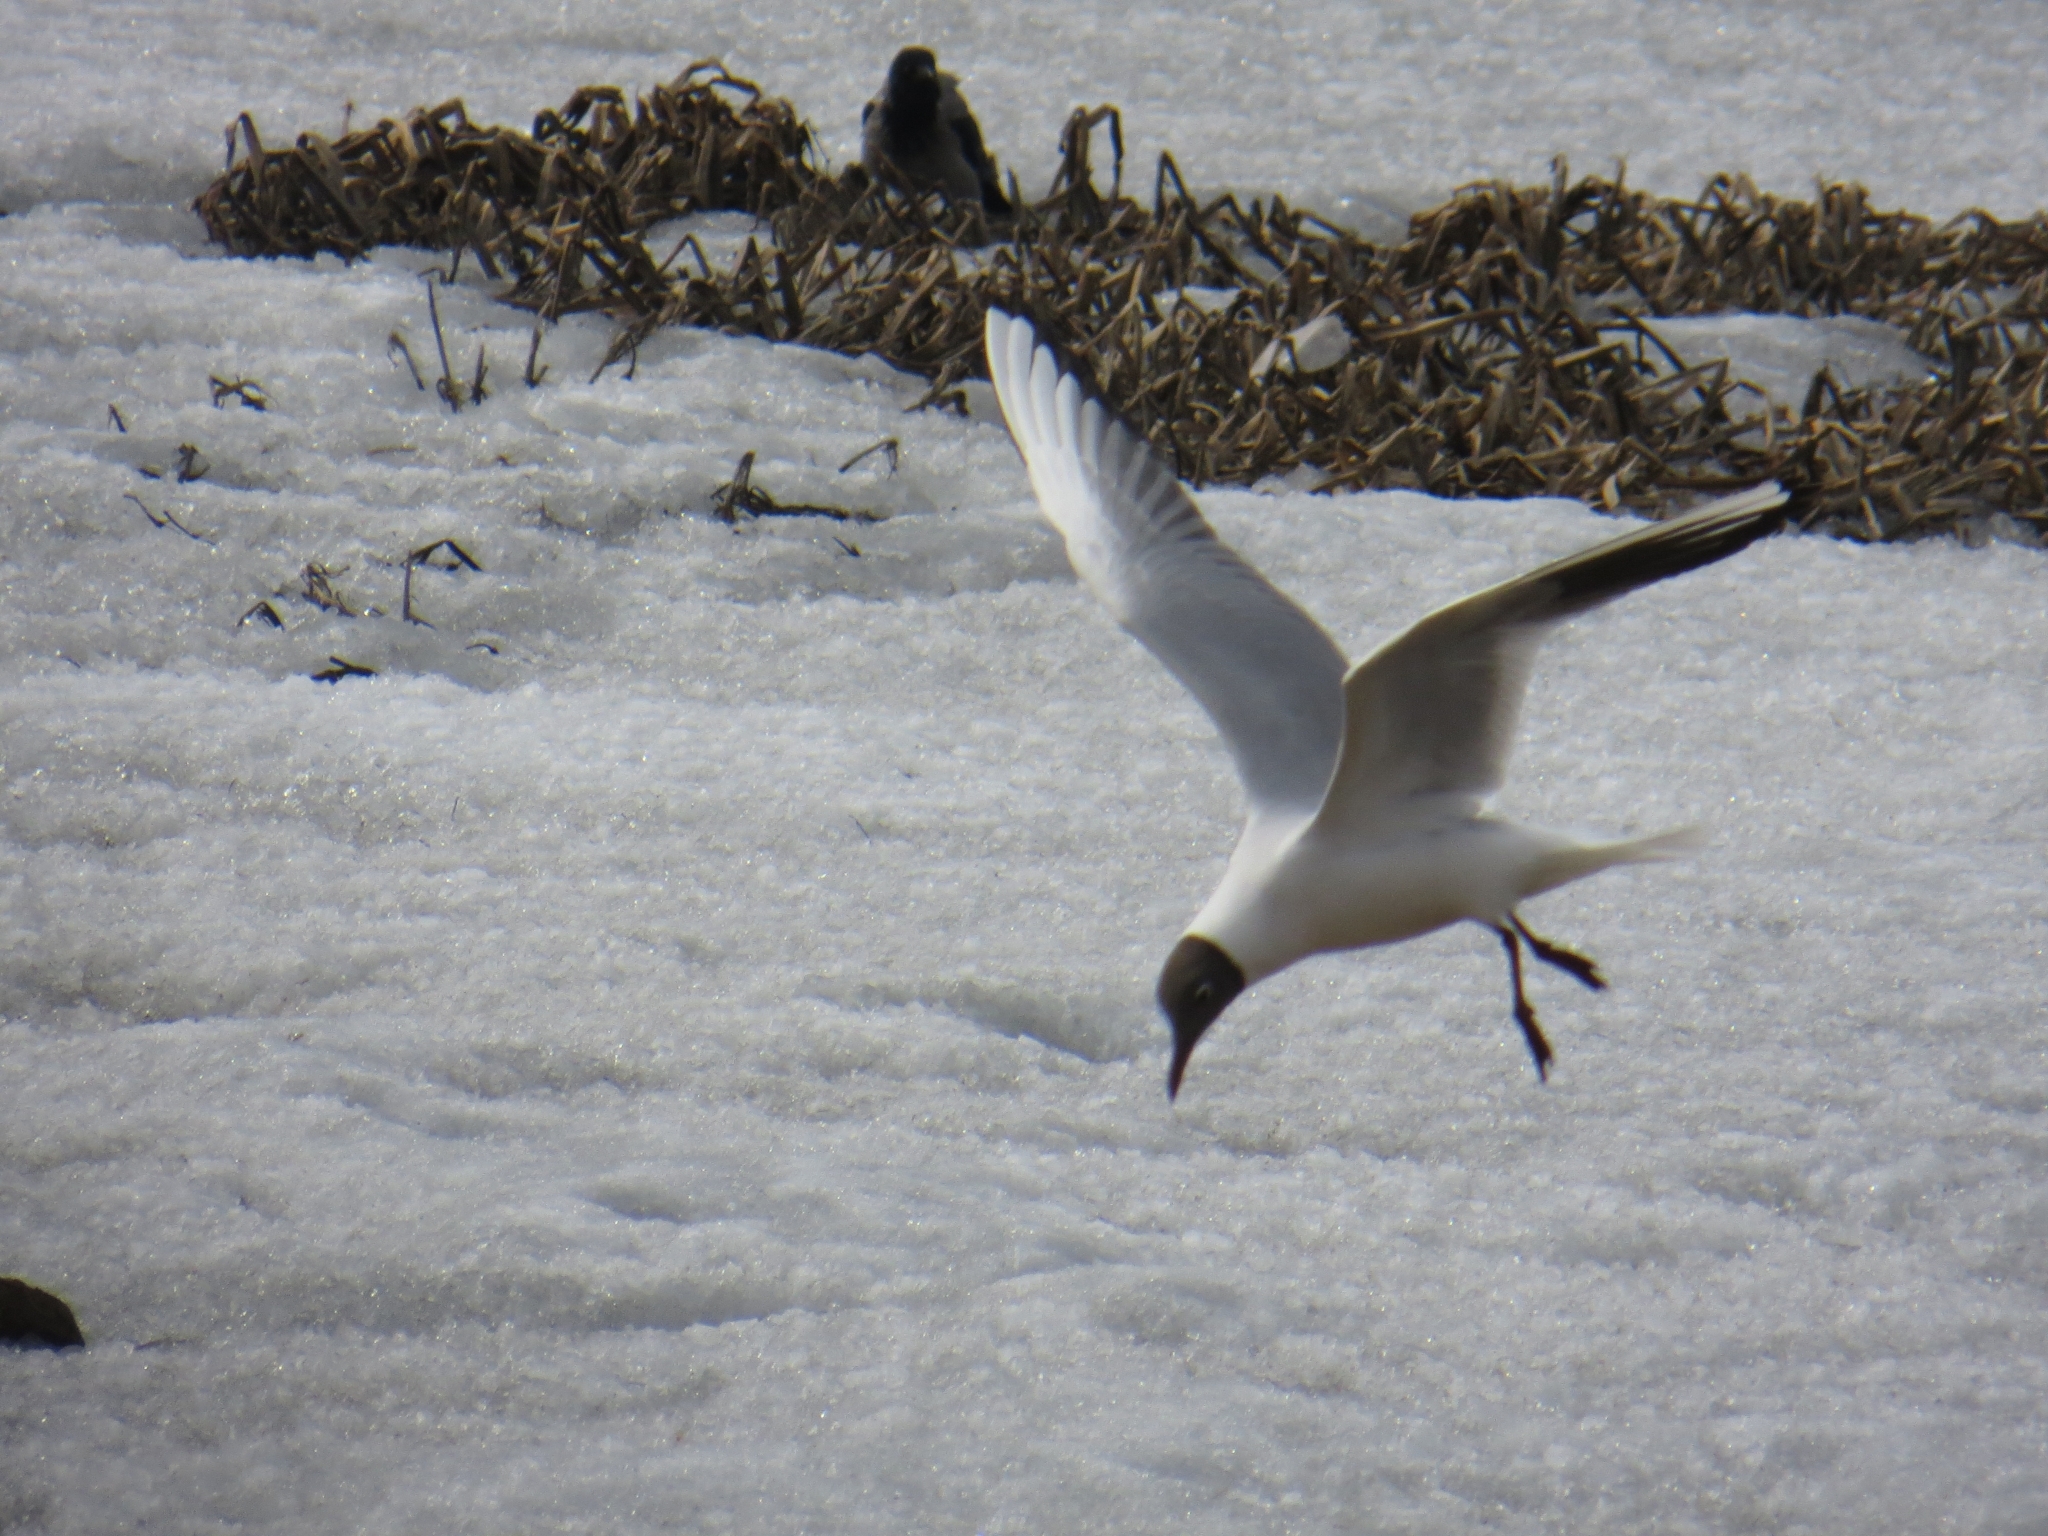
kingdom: Animalia
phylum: Chordata
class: Aves
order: Charadriiformes
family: Laridae
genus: Chroicocephalus
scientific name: Chroicocephalus ridibundus
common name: Black-headed gull
